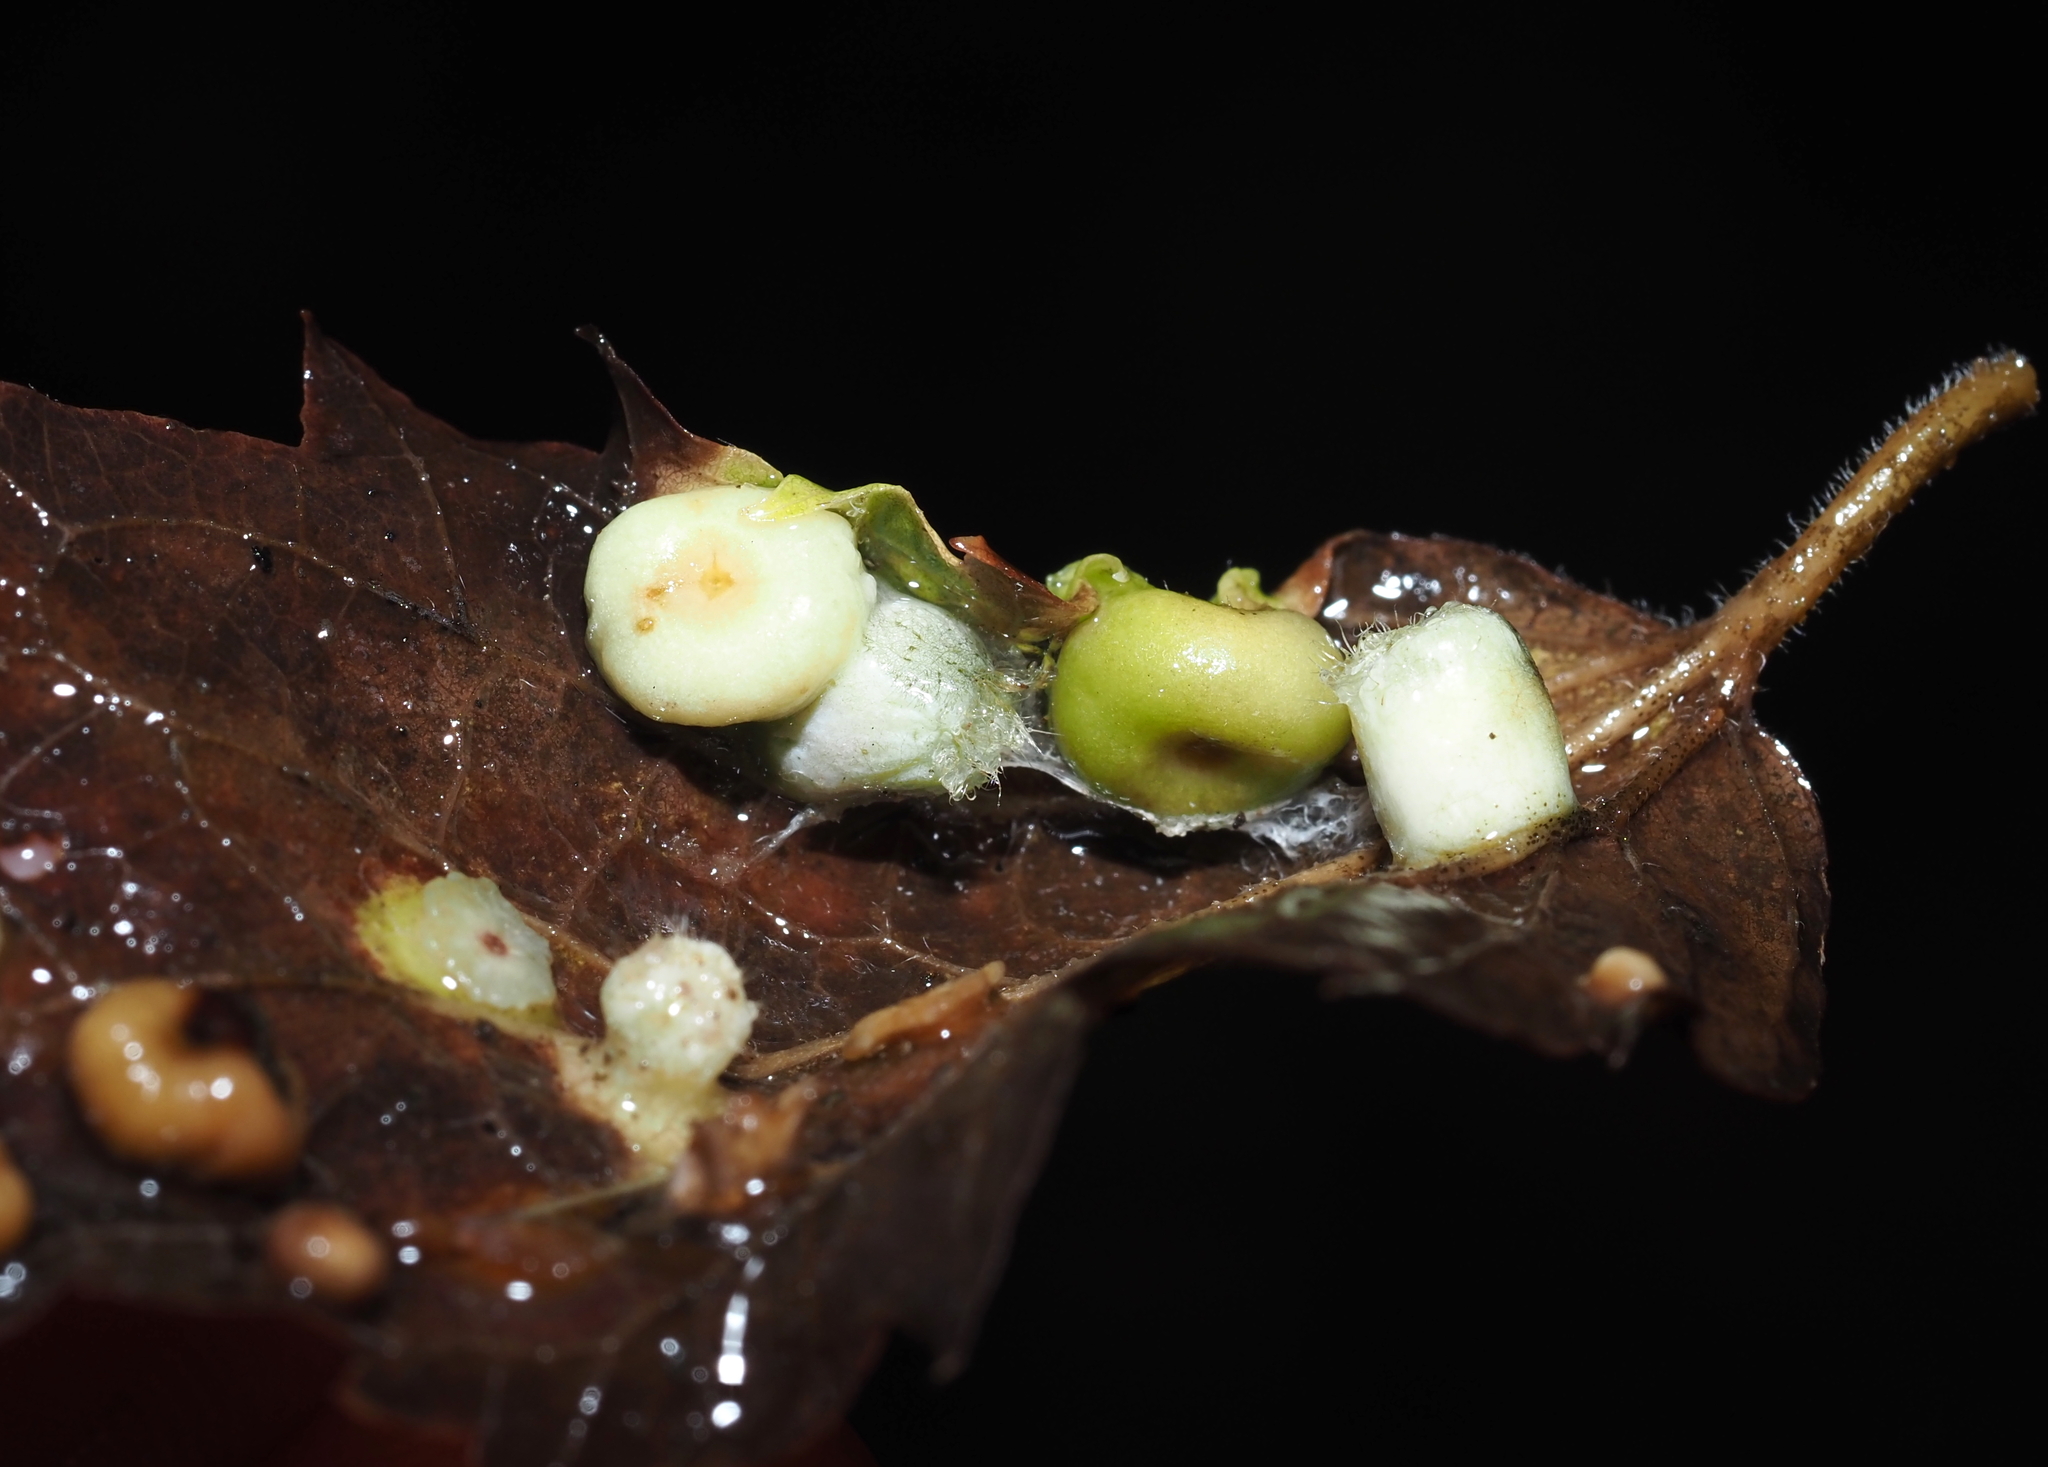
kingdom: Animalia
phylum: Arthropoda
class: Insecta
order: Hemiptera
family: Aphalaridae
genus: Pachypsylla
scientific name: Pachypsylla celtidismamma
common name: Hackberry nipplegall psyllid
